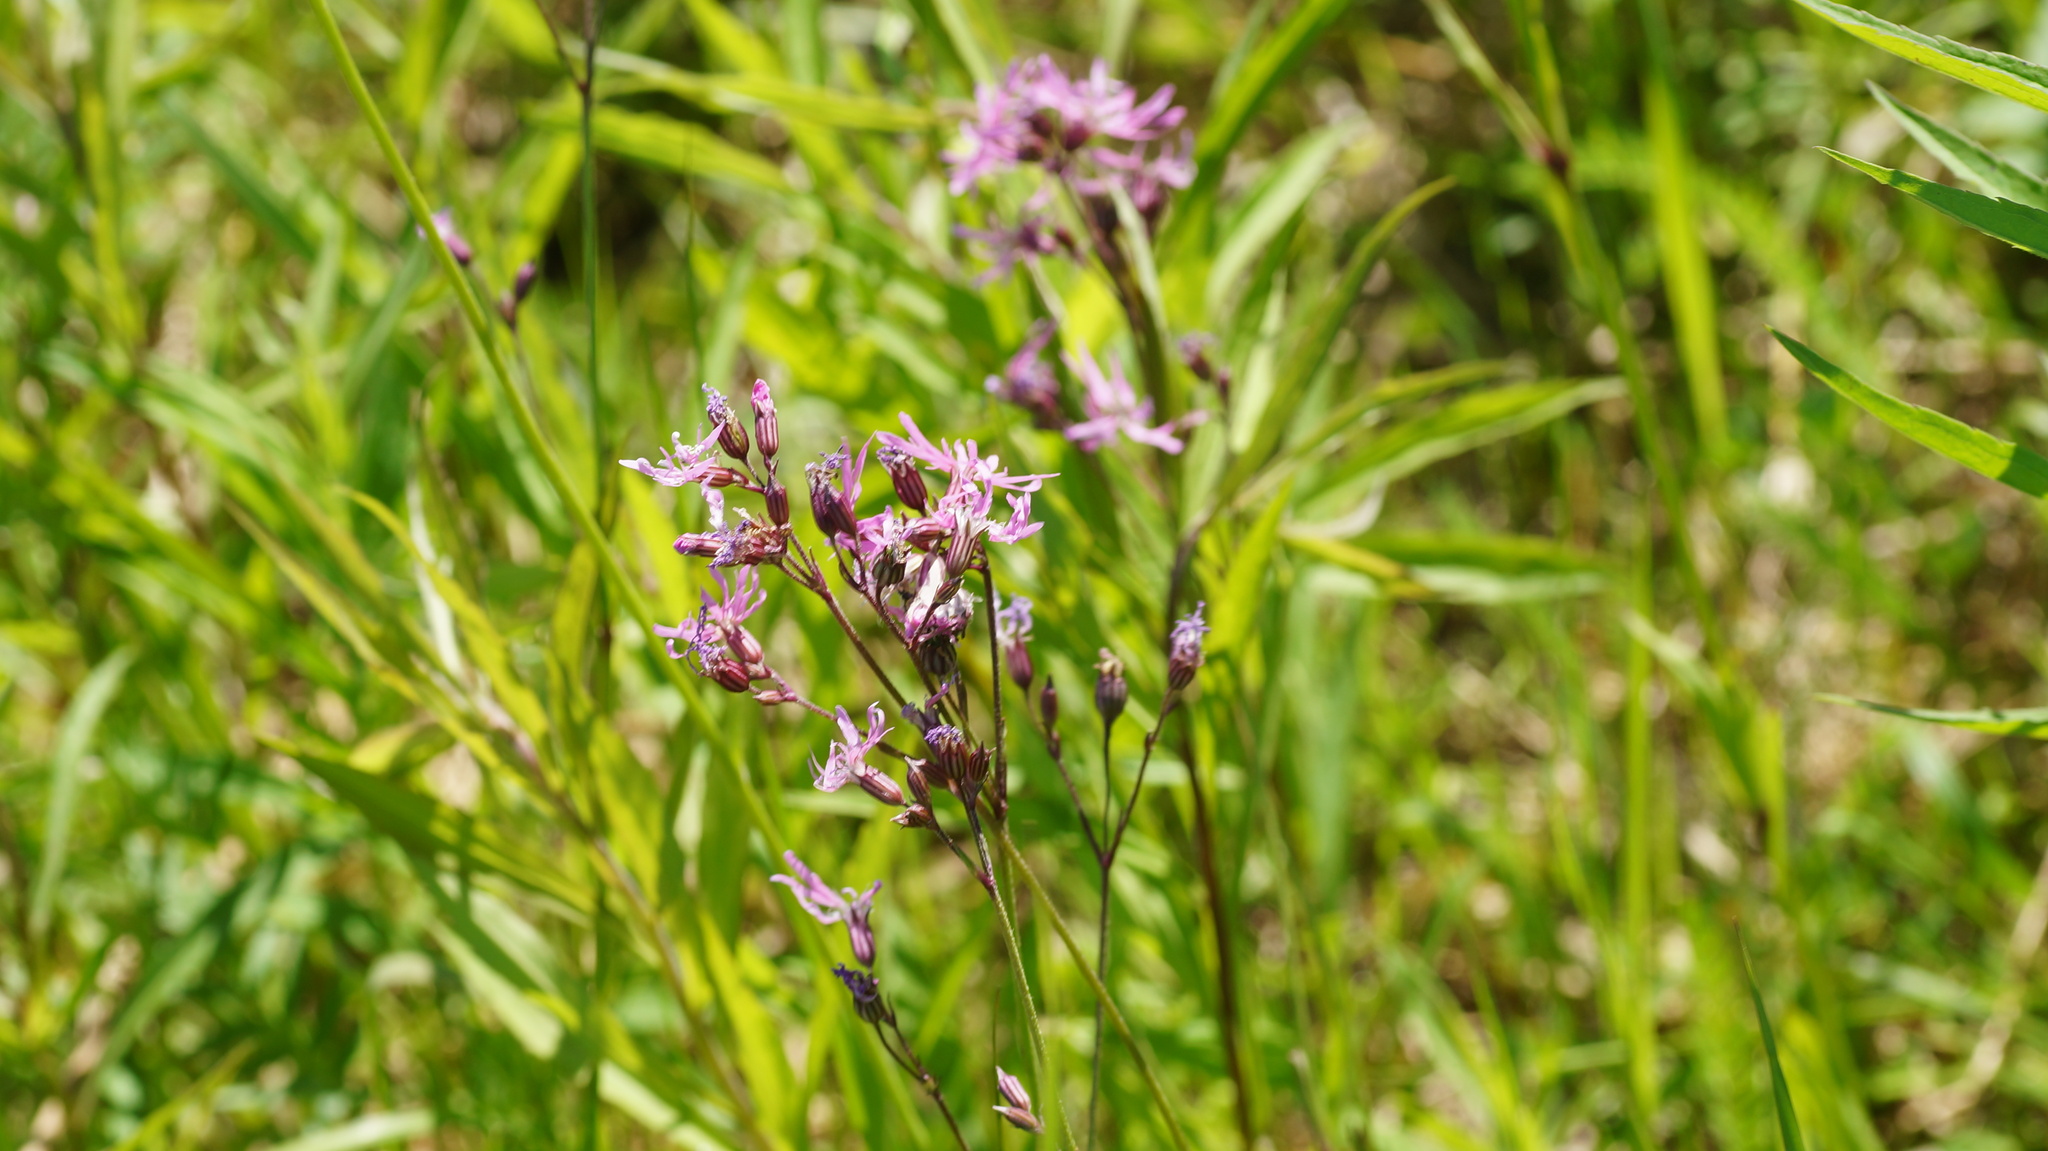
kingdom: Plantae
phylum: Tracheophyta
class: Magnoliopsida
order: Caryophyllales
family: Caryophyllaceae
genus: Silene
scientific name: Silene flos-cuculi
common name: Ragged-robin
